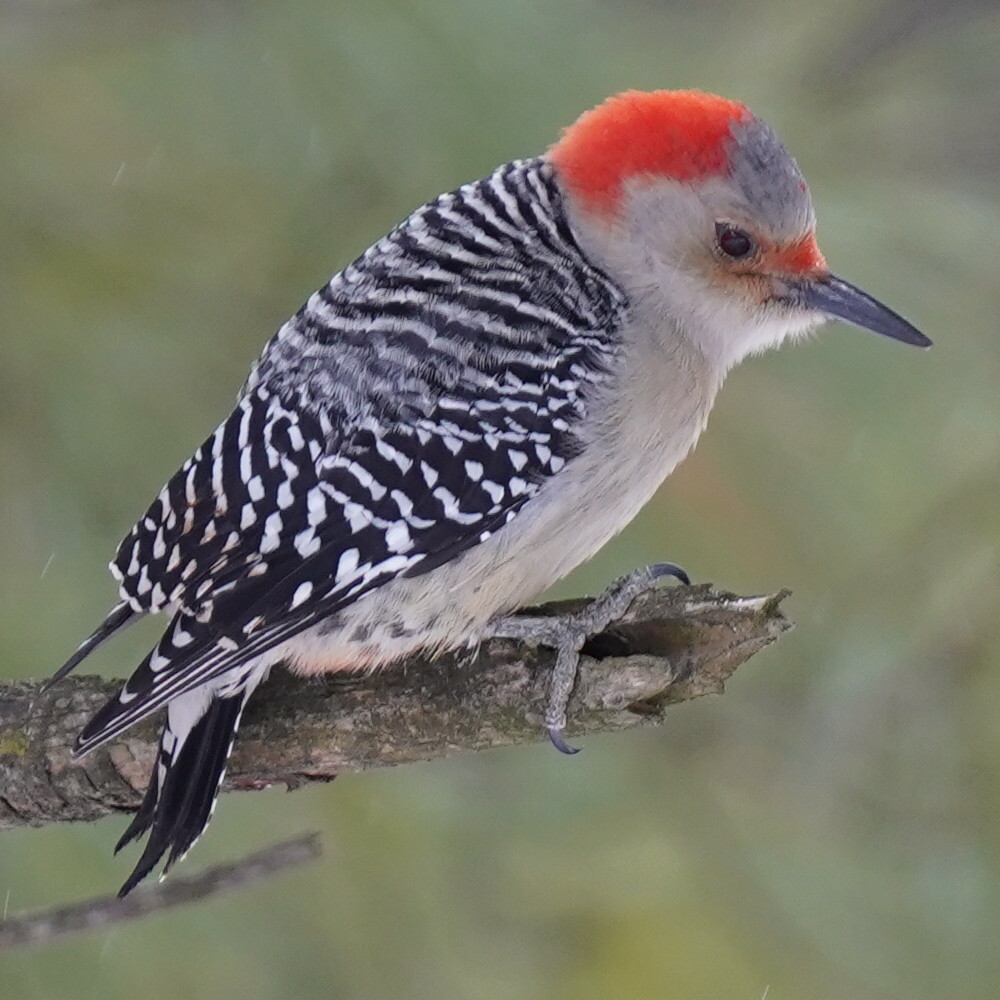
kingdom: Animalia
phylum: Chordata
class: Aves
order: Piciformes
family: Picidae
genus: Melanerpes
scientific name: Melanerpes carolinus
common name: Red-bellied woodpecker
